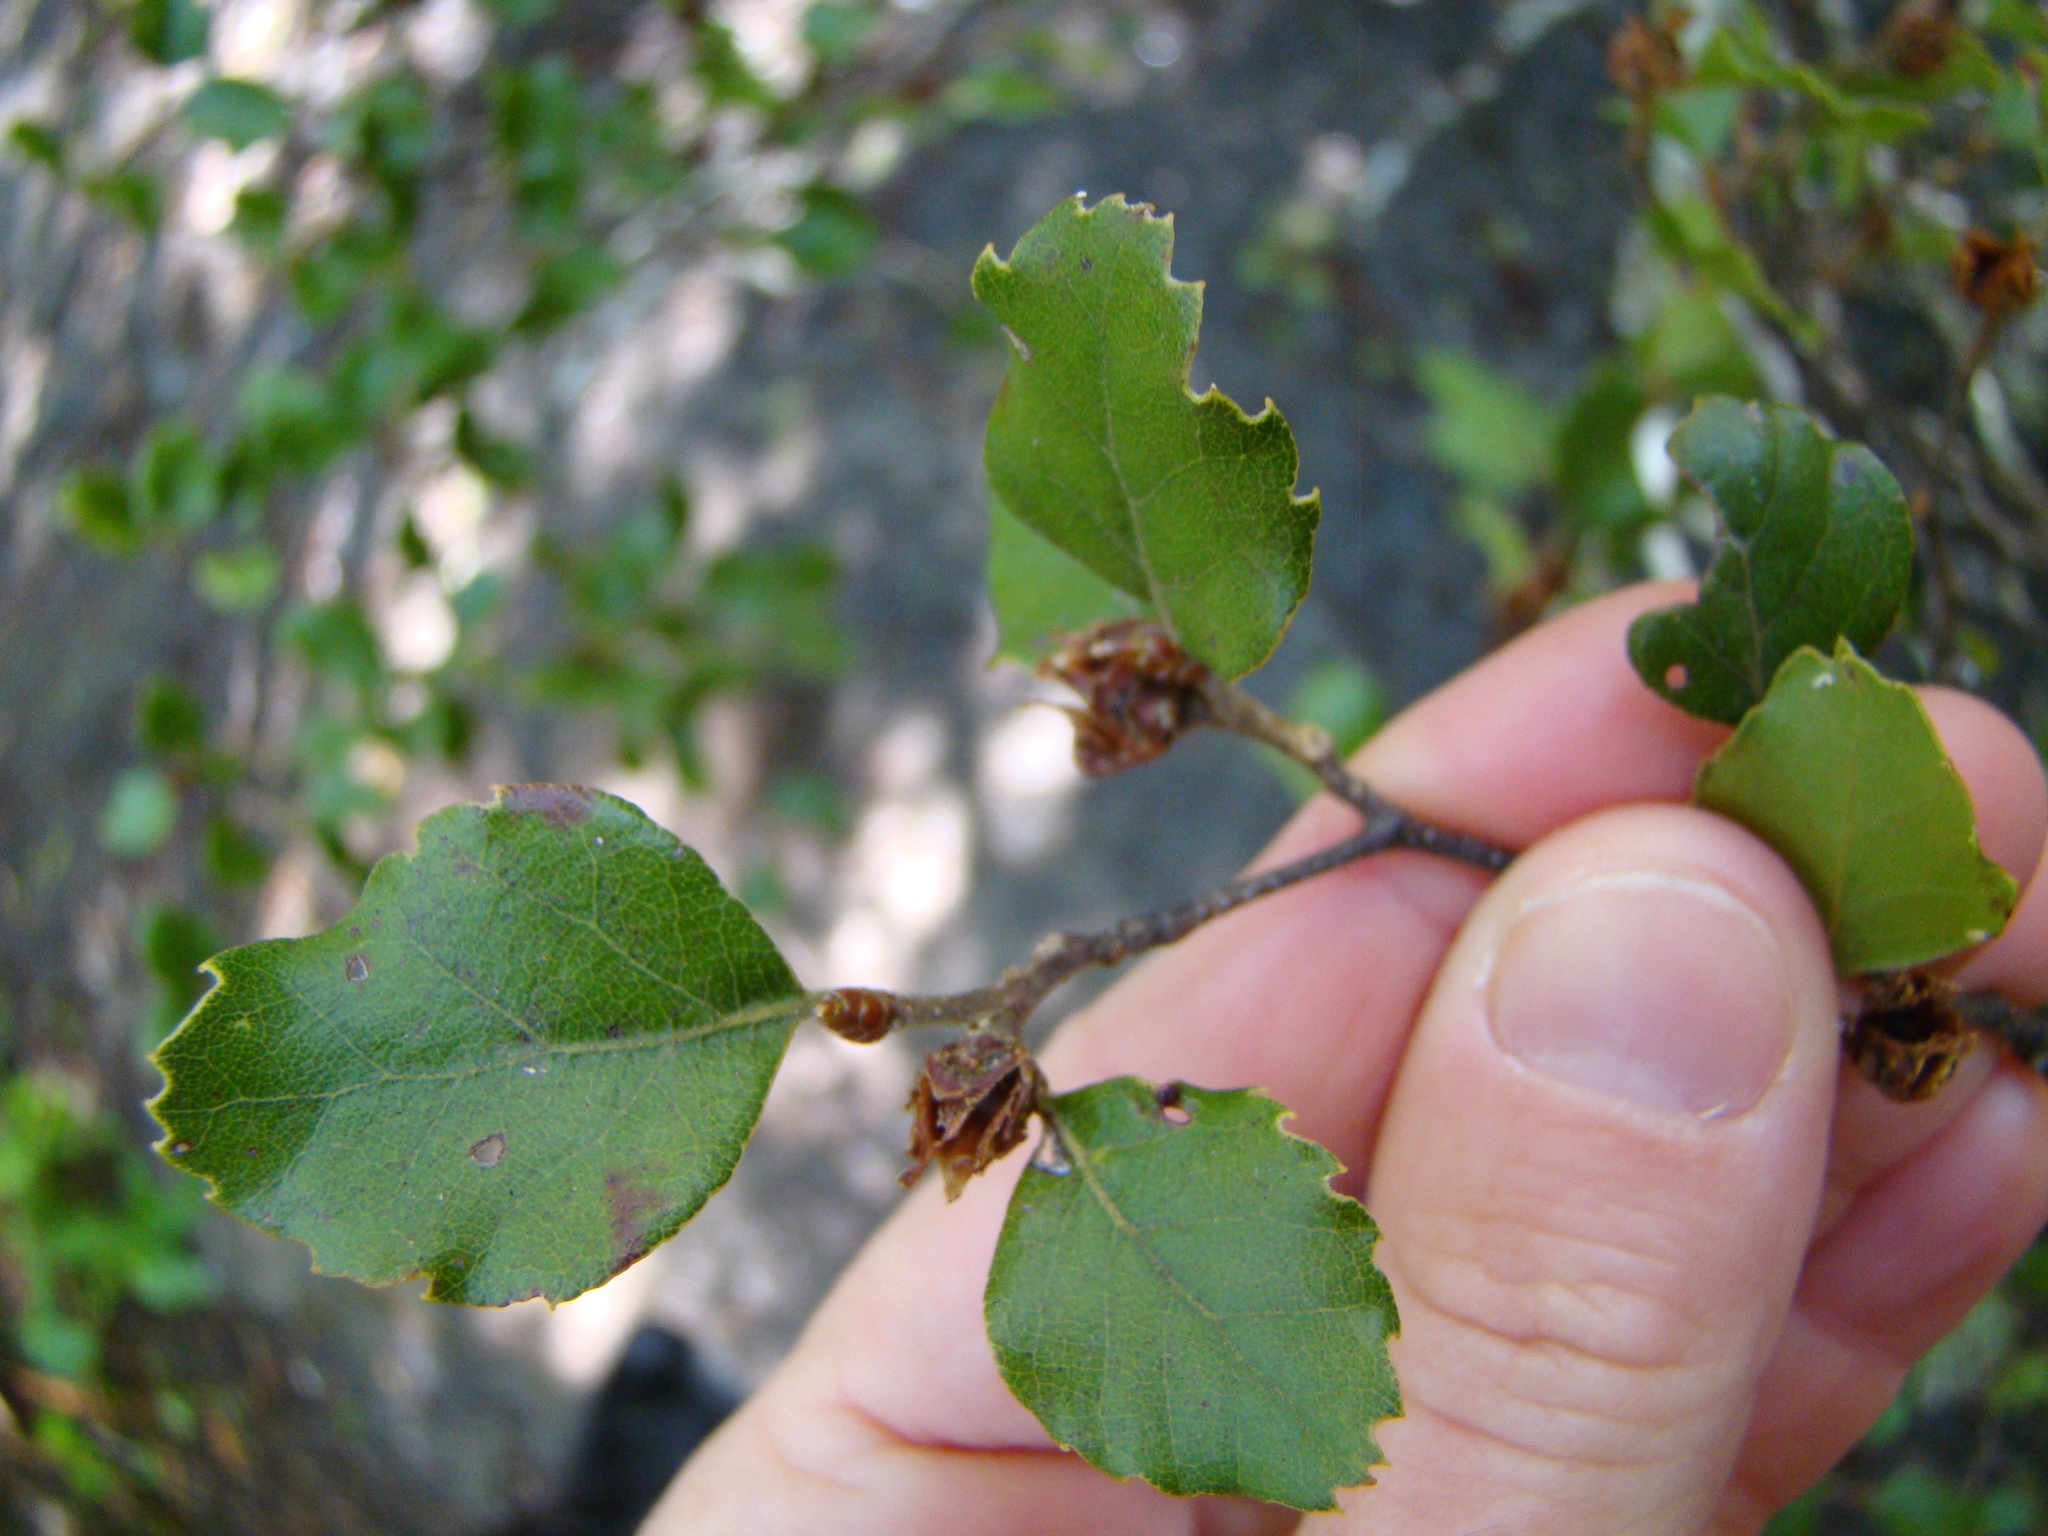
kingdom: Plantae
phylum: Tracheophyta
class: Magnoliopsida
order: Fagales
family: Nothofagaceae
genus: Nothofagus
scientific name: Nothofagus fusca
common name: Red beech
